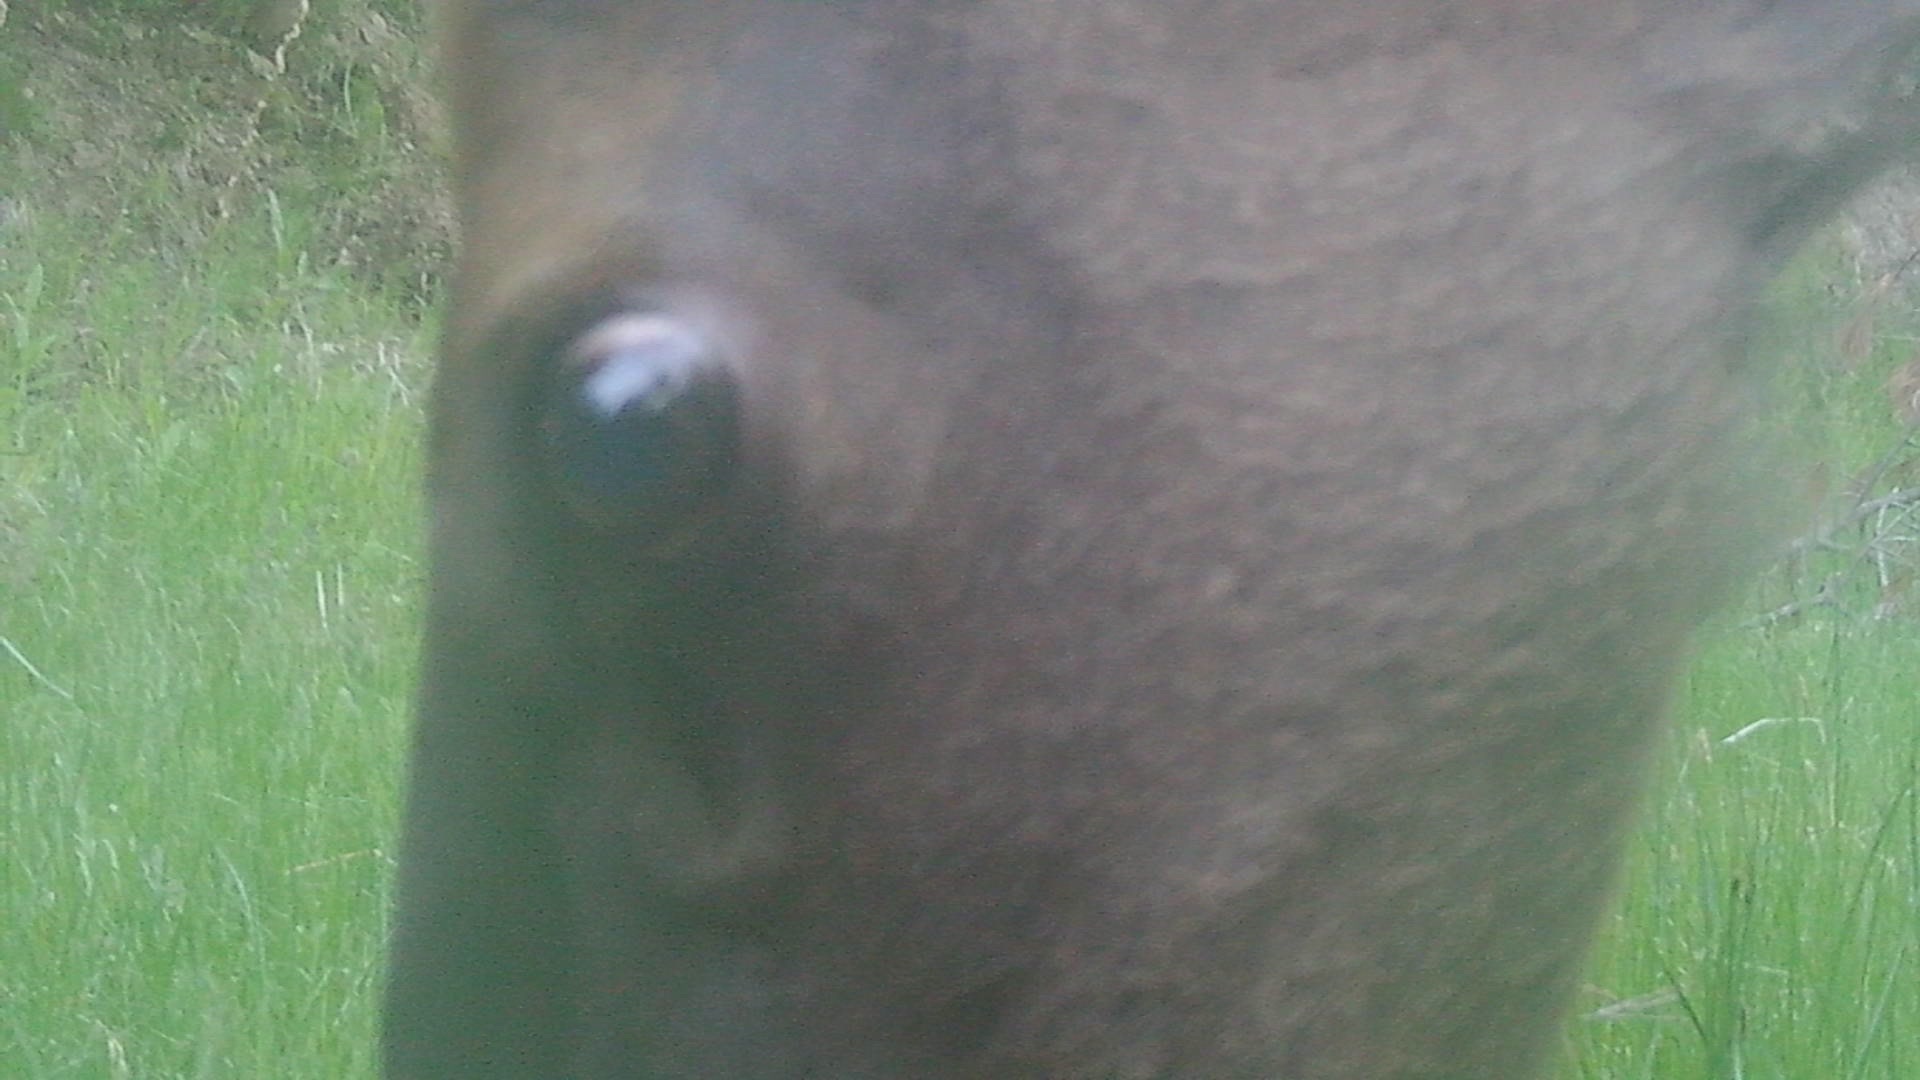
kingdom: Animalia
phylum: Chordata
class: Mammalia
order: Artiodactyla
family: Cervidae
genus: Cervus
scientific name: Cervus elaphus
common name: Red deer
